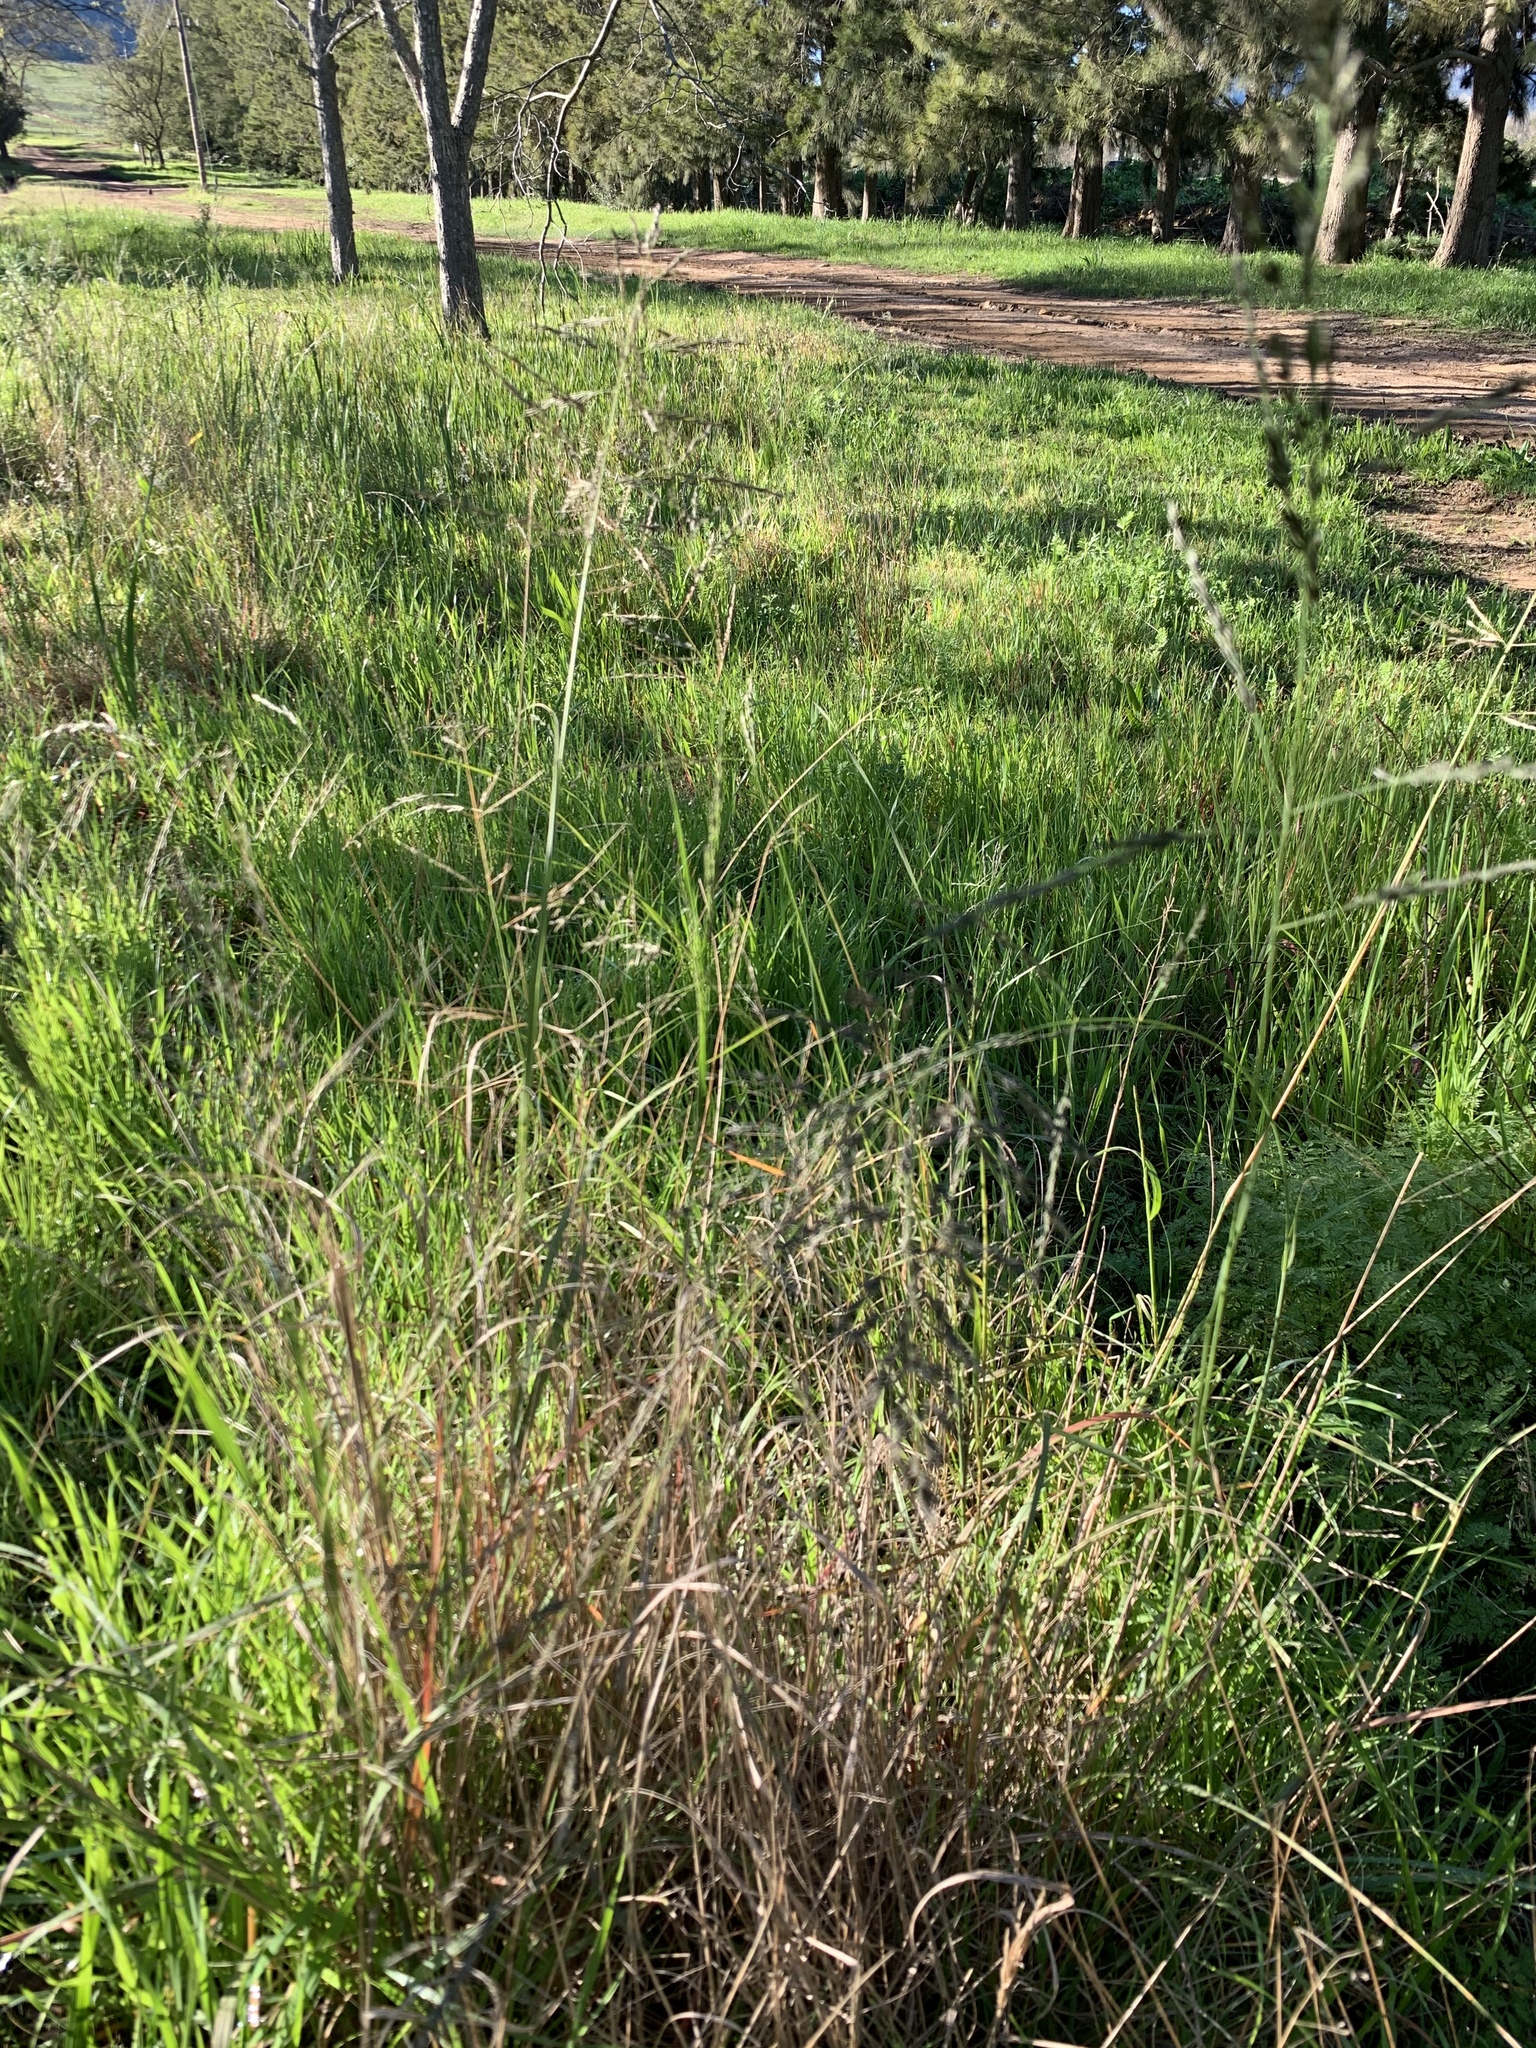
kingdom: Plantae
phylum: Tracheophyta
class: Liliopsida
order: Poales
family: Poaceae
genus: Eragrostis
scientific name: Eragrostis curvula
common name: African love-grass
